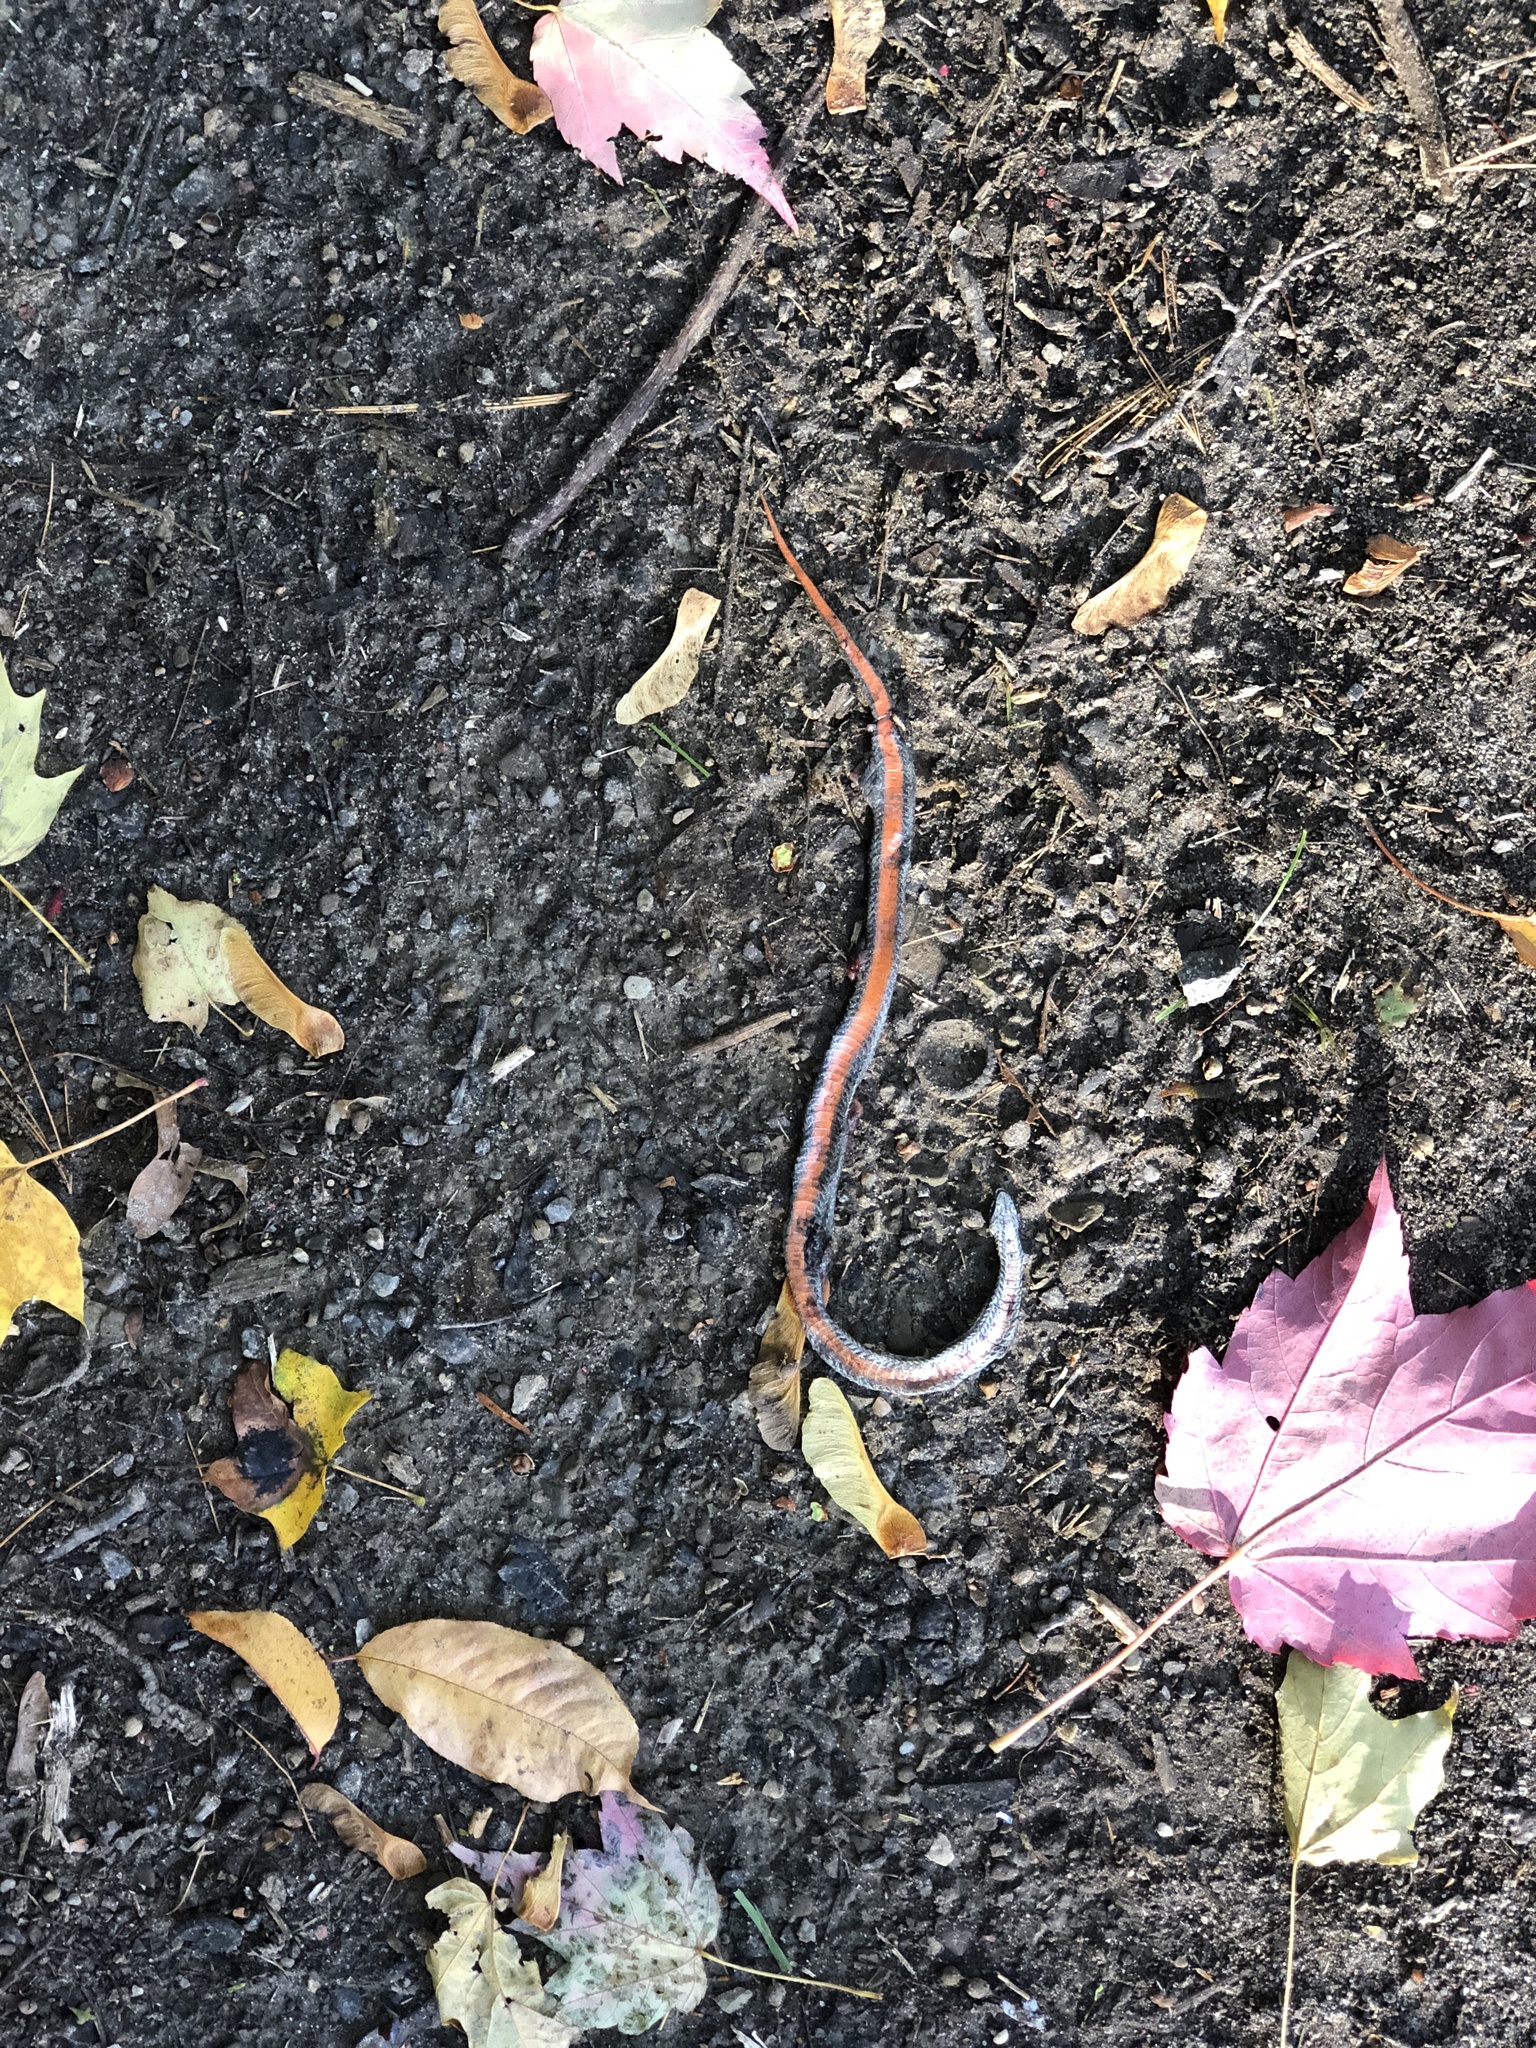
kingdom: Animalia
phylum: Chordata
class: Squamata
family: Colubridae
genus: Storeria
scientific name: Storeria occipitomaculata
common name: Redbelly snake
